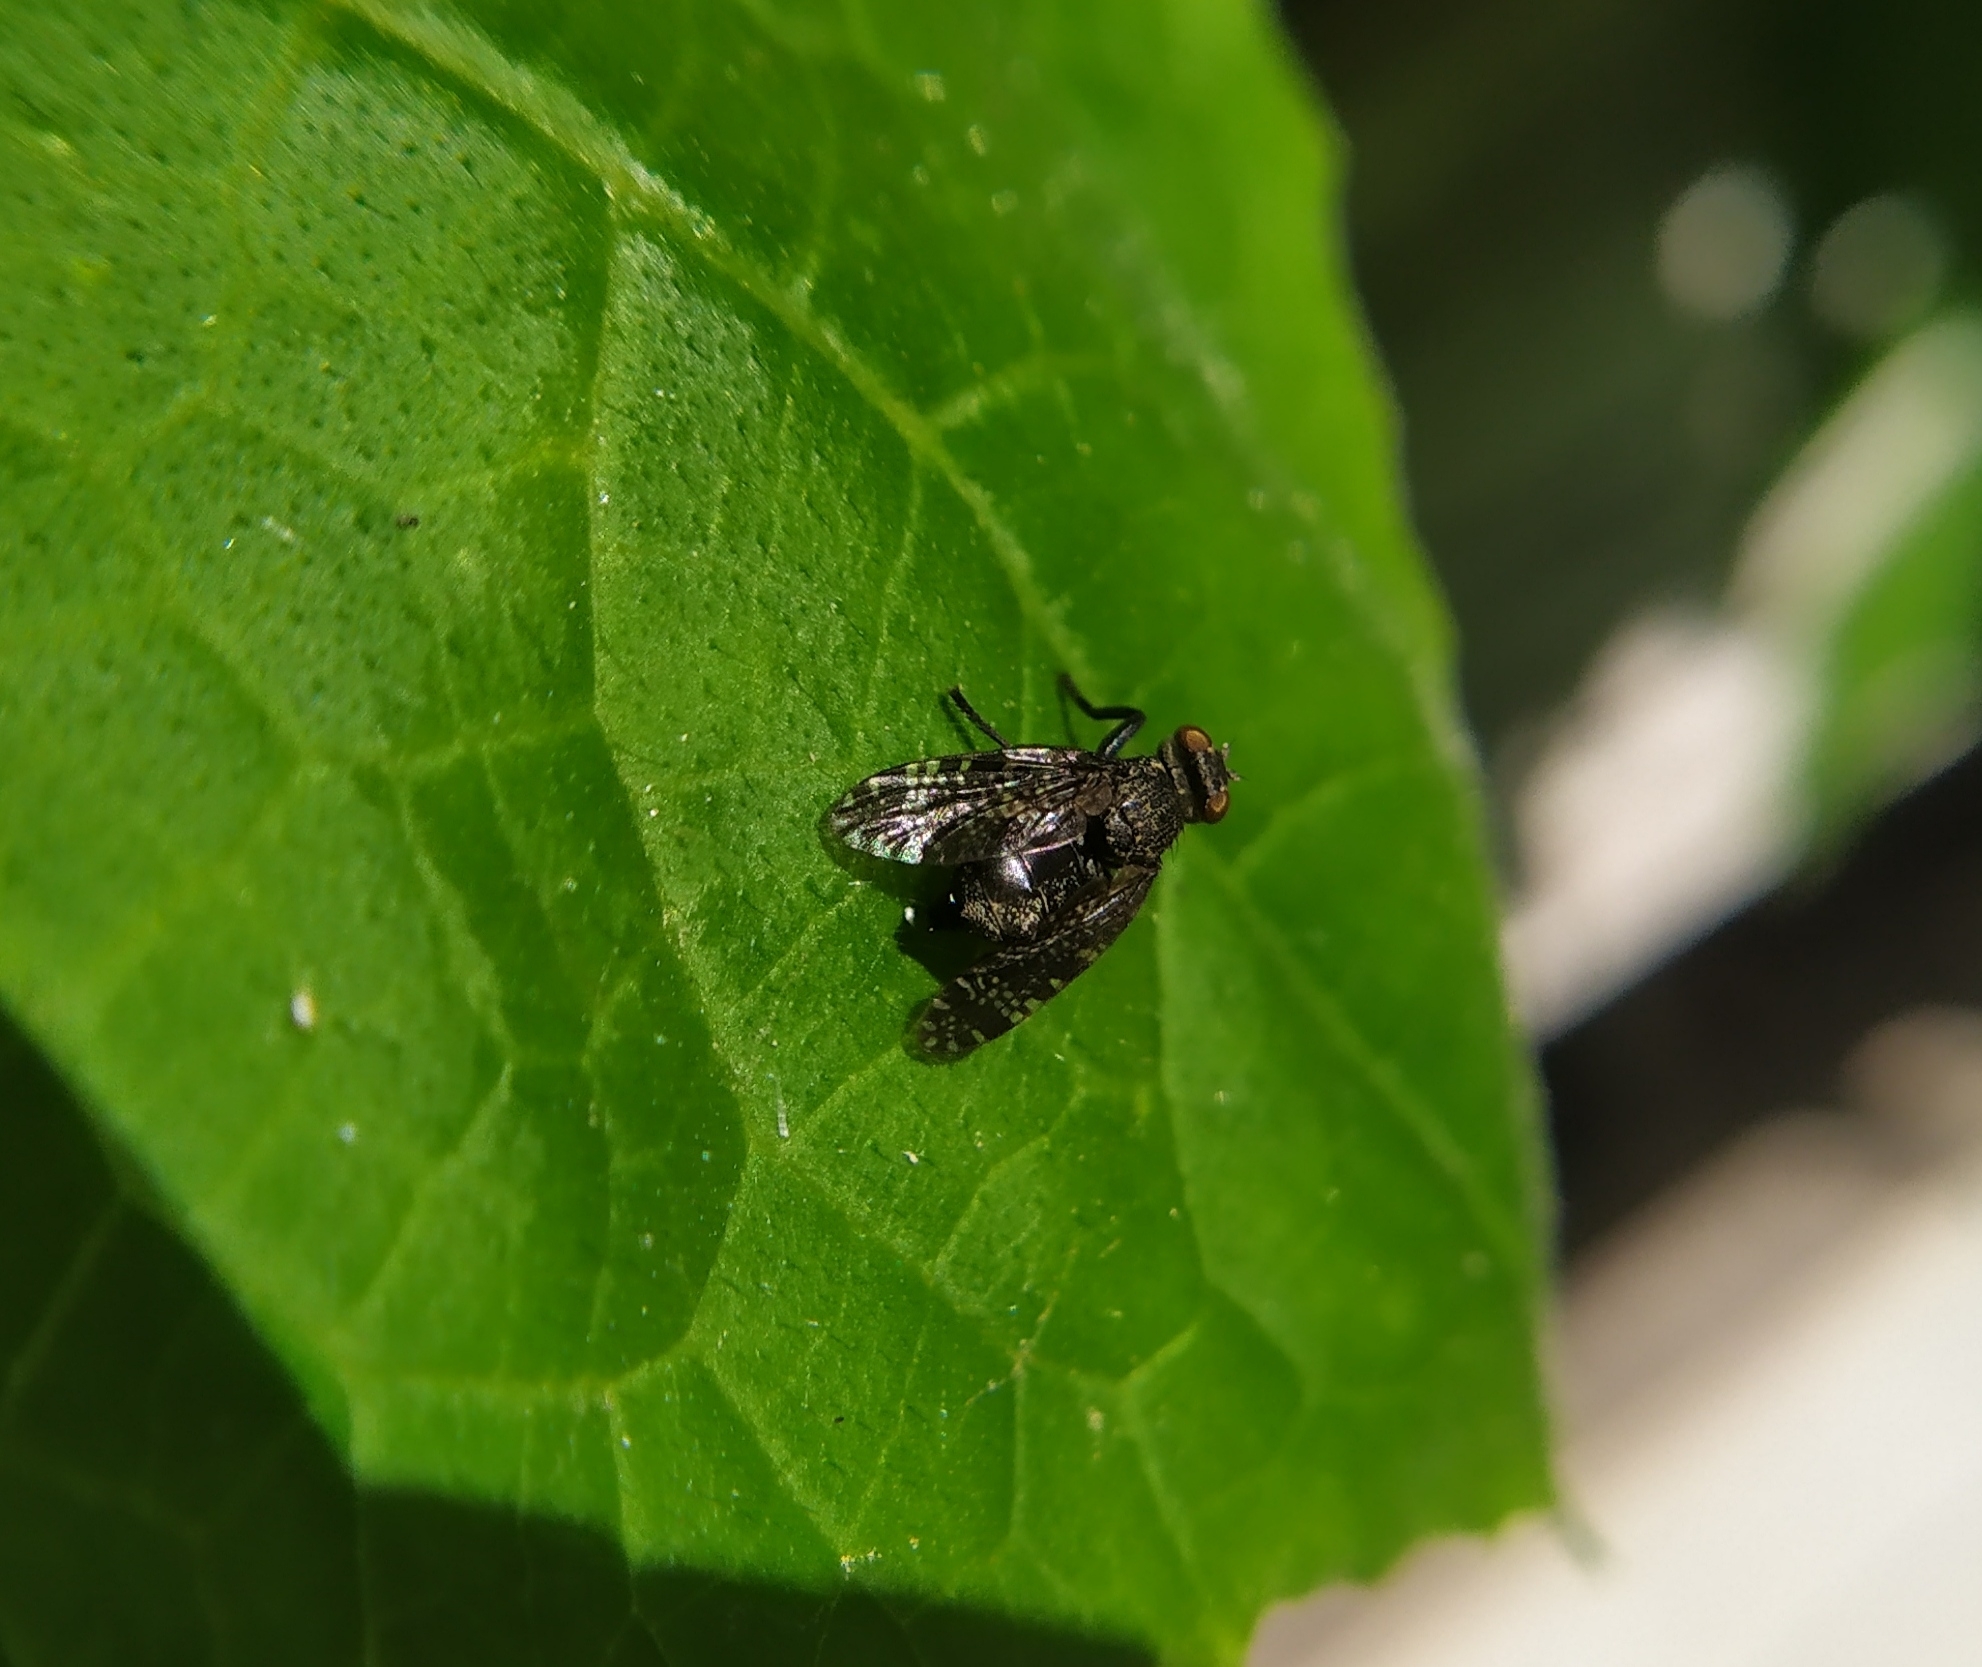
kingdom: Animalia
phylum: Arthropoda
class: Insecta
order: Diptera
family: Platystomatidae
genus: Platystoma
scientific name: Platystoma seminationis
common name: Fly
